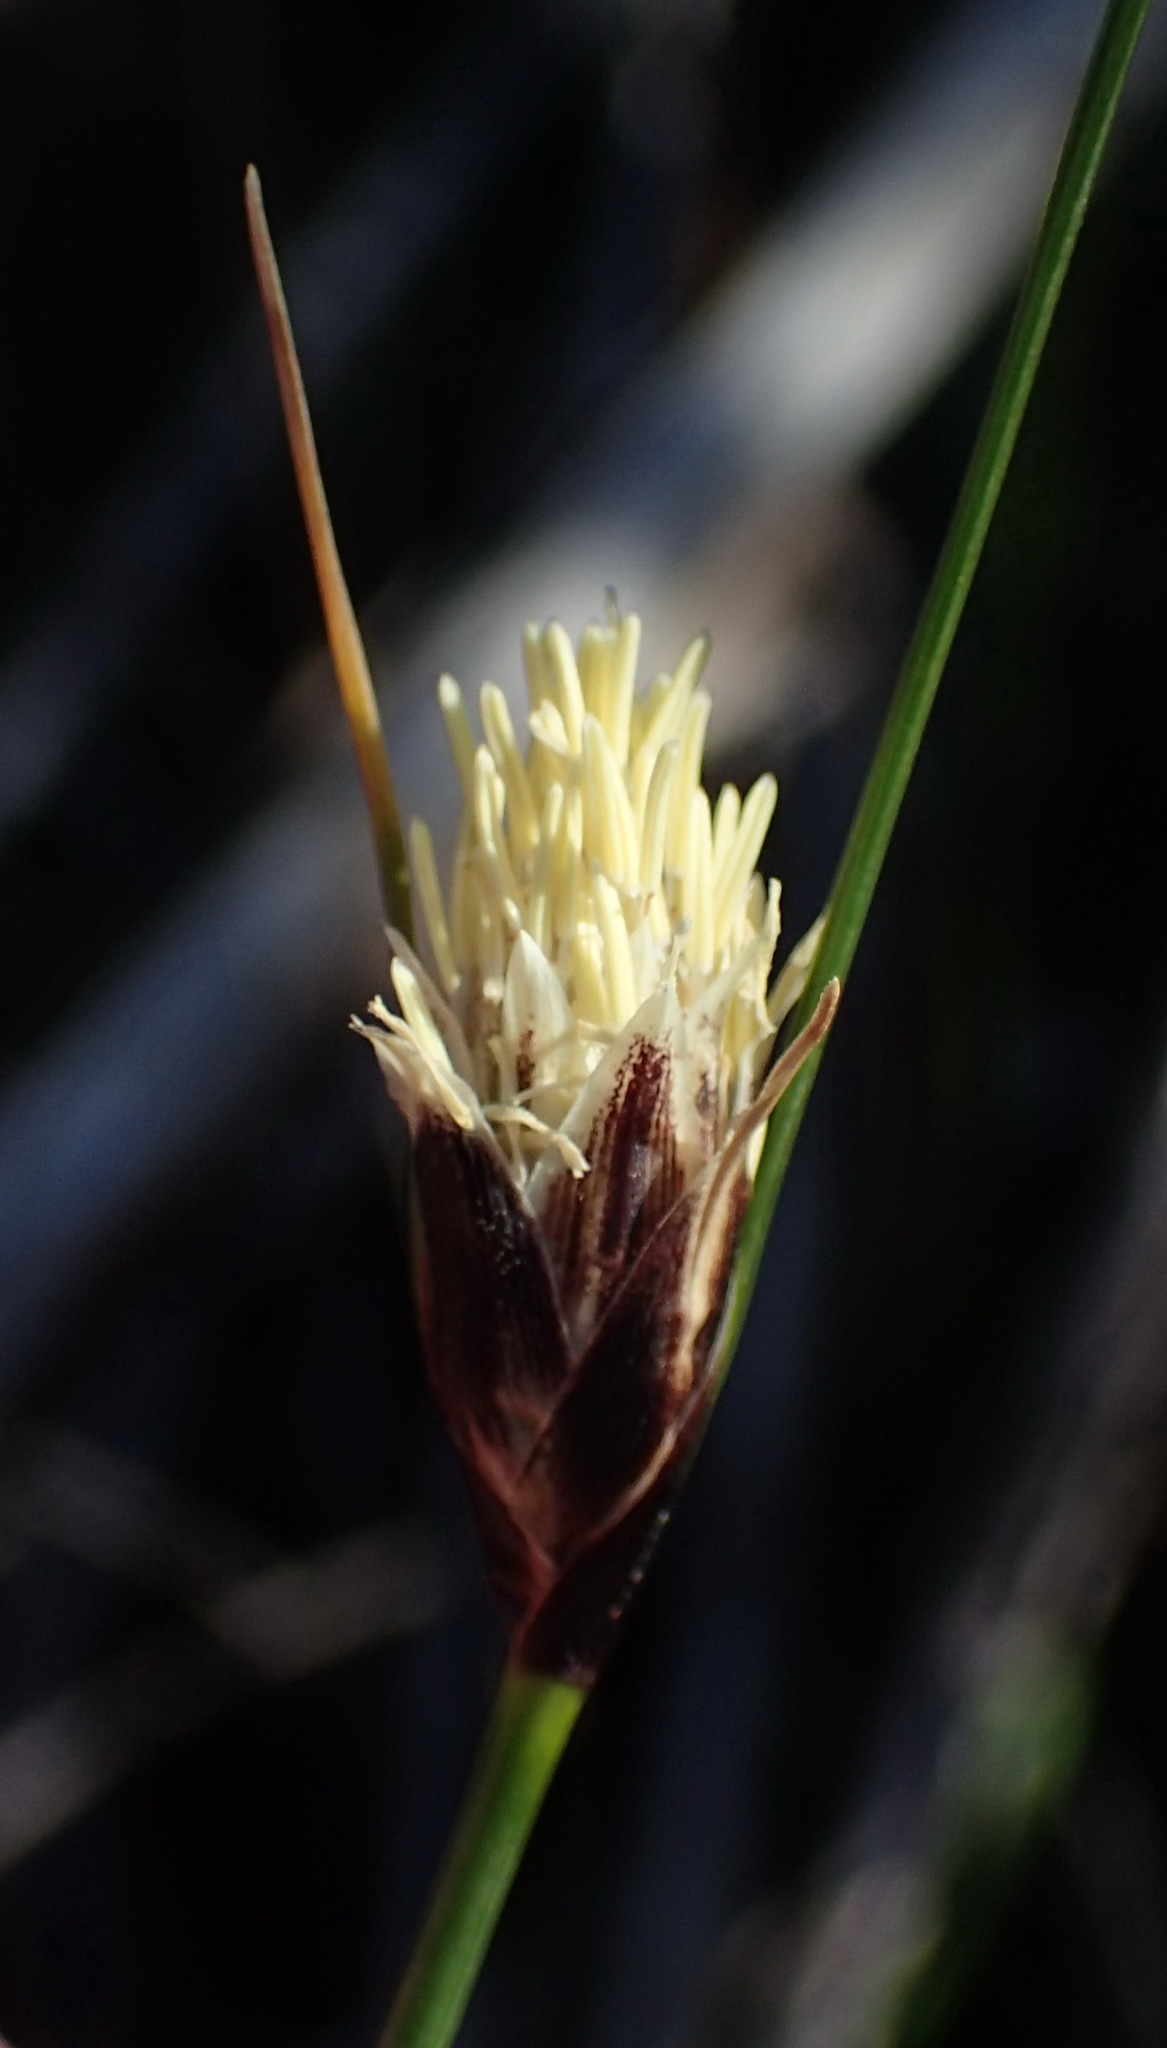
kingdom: Plantae
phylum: Tracheophyta
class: Liliopsida
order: Poales
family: Cyperaceae
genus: Ficinia
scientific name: Ficinia nigrescens
